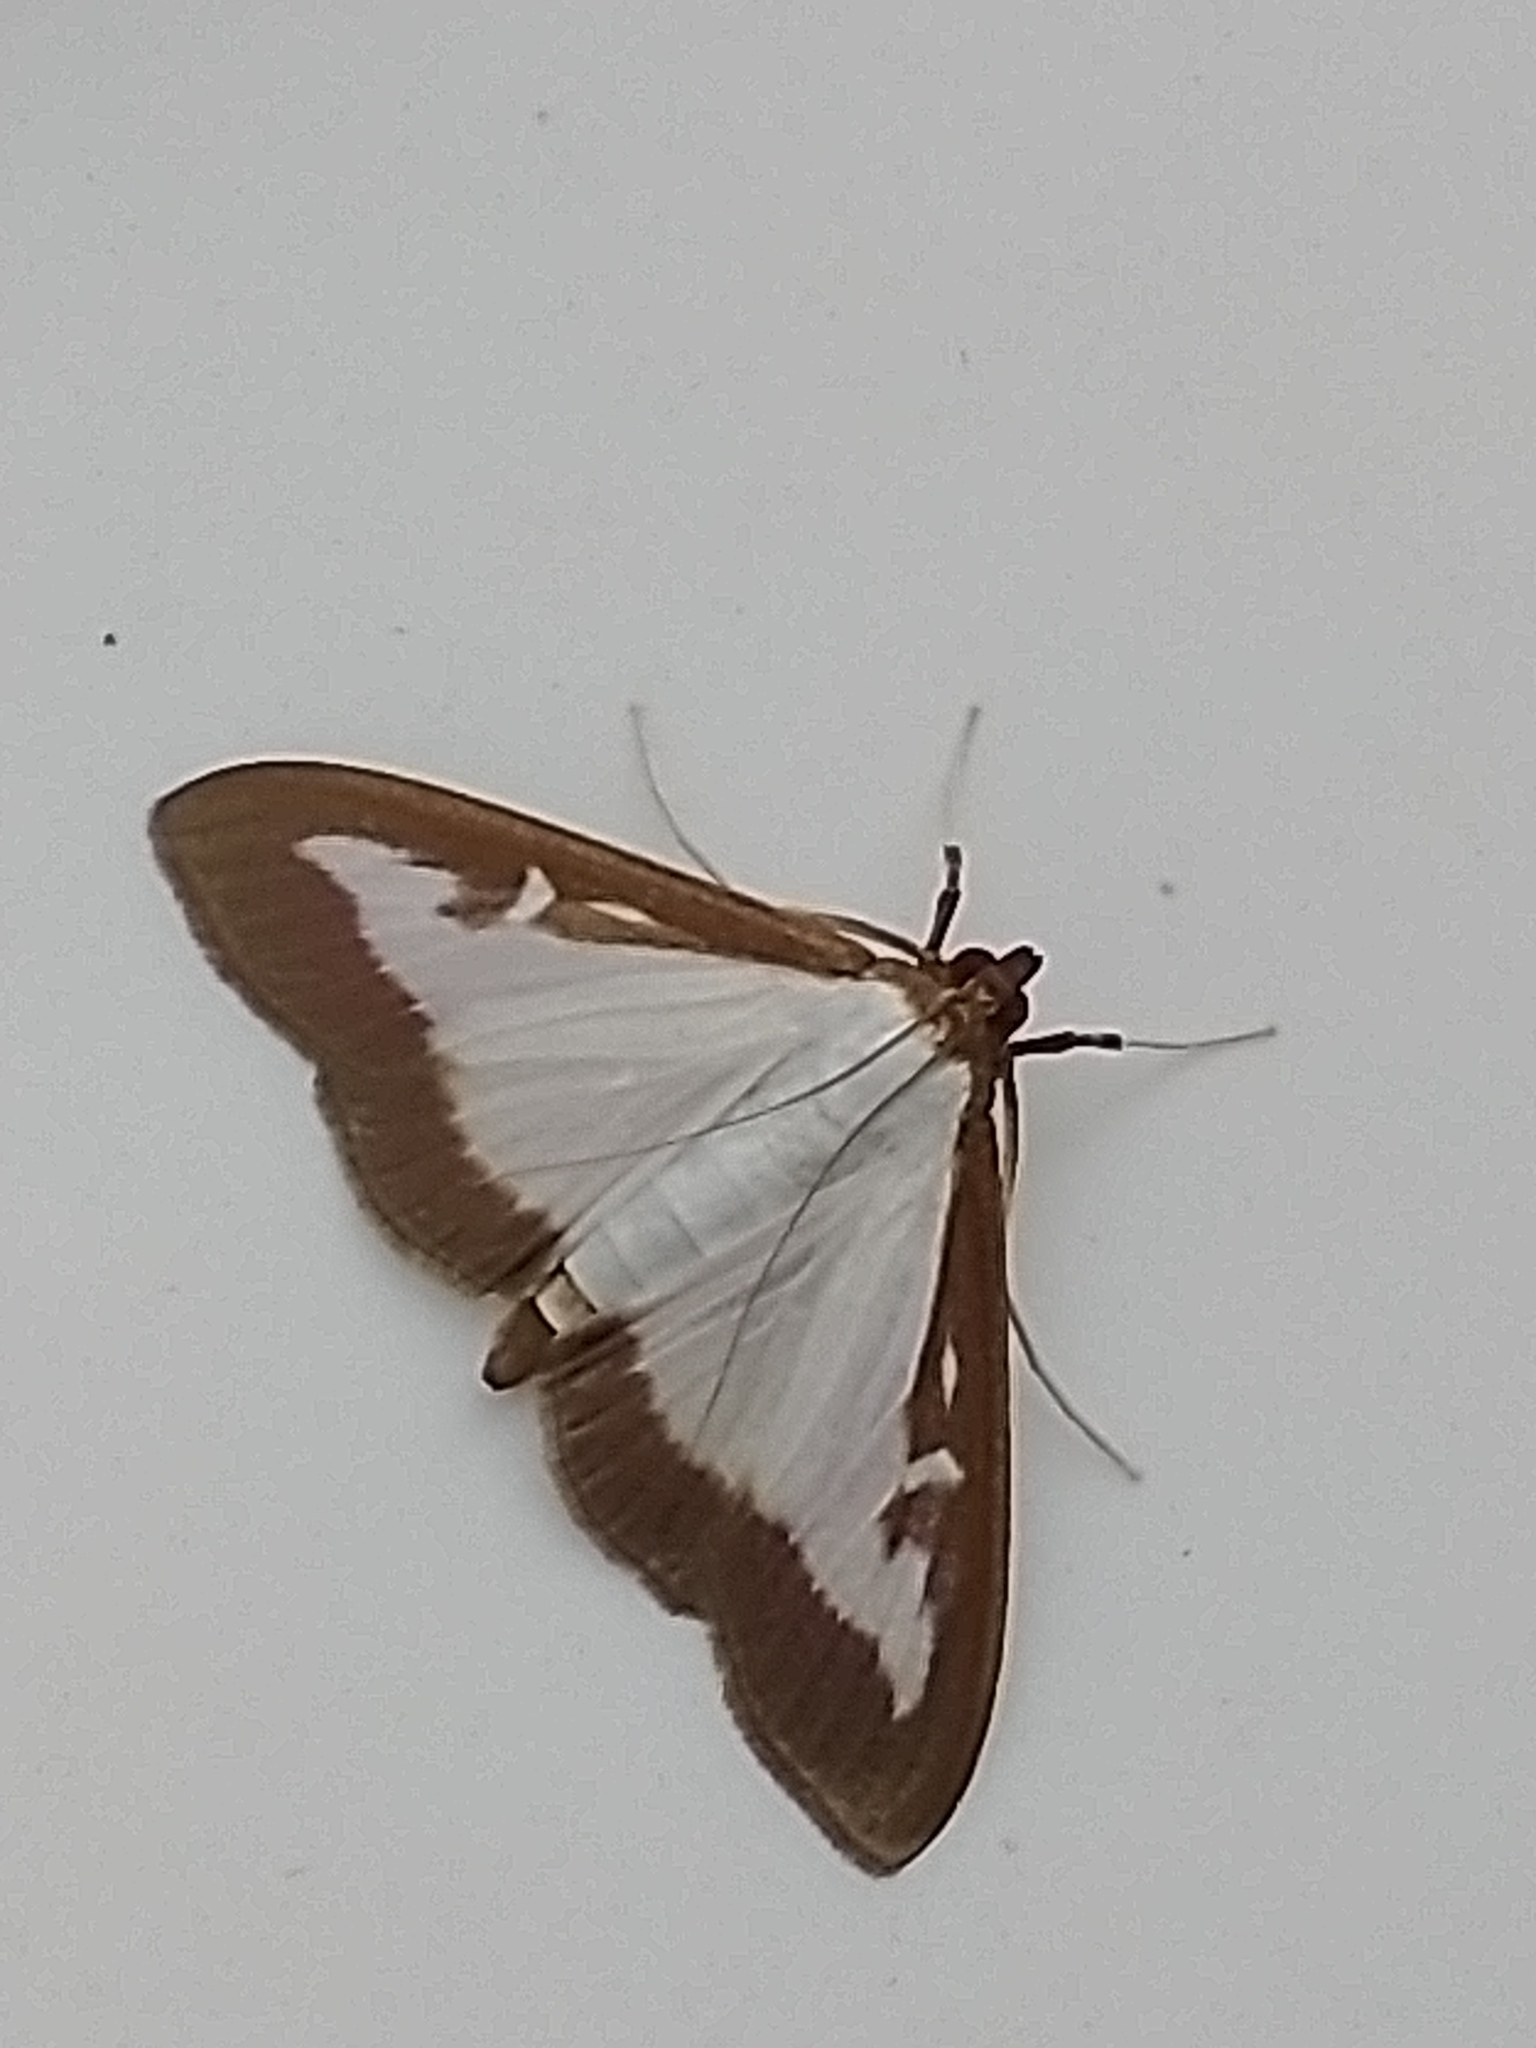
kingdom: Animalia
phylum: Arthropoda
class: Insecta
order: Lepidoptera
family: Crambidae
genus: Cydalima
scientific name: Cydalima perspectalis
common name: Box tree moth
